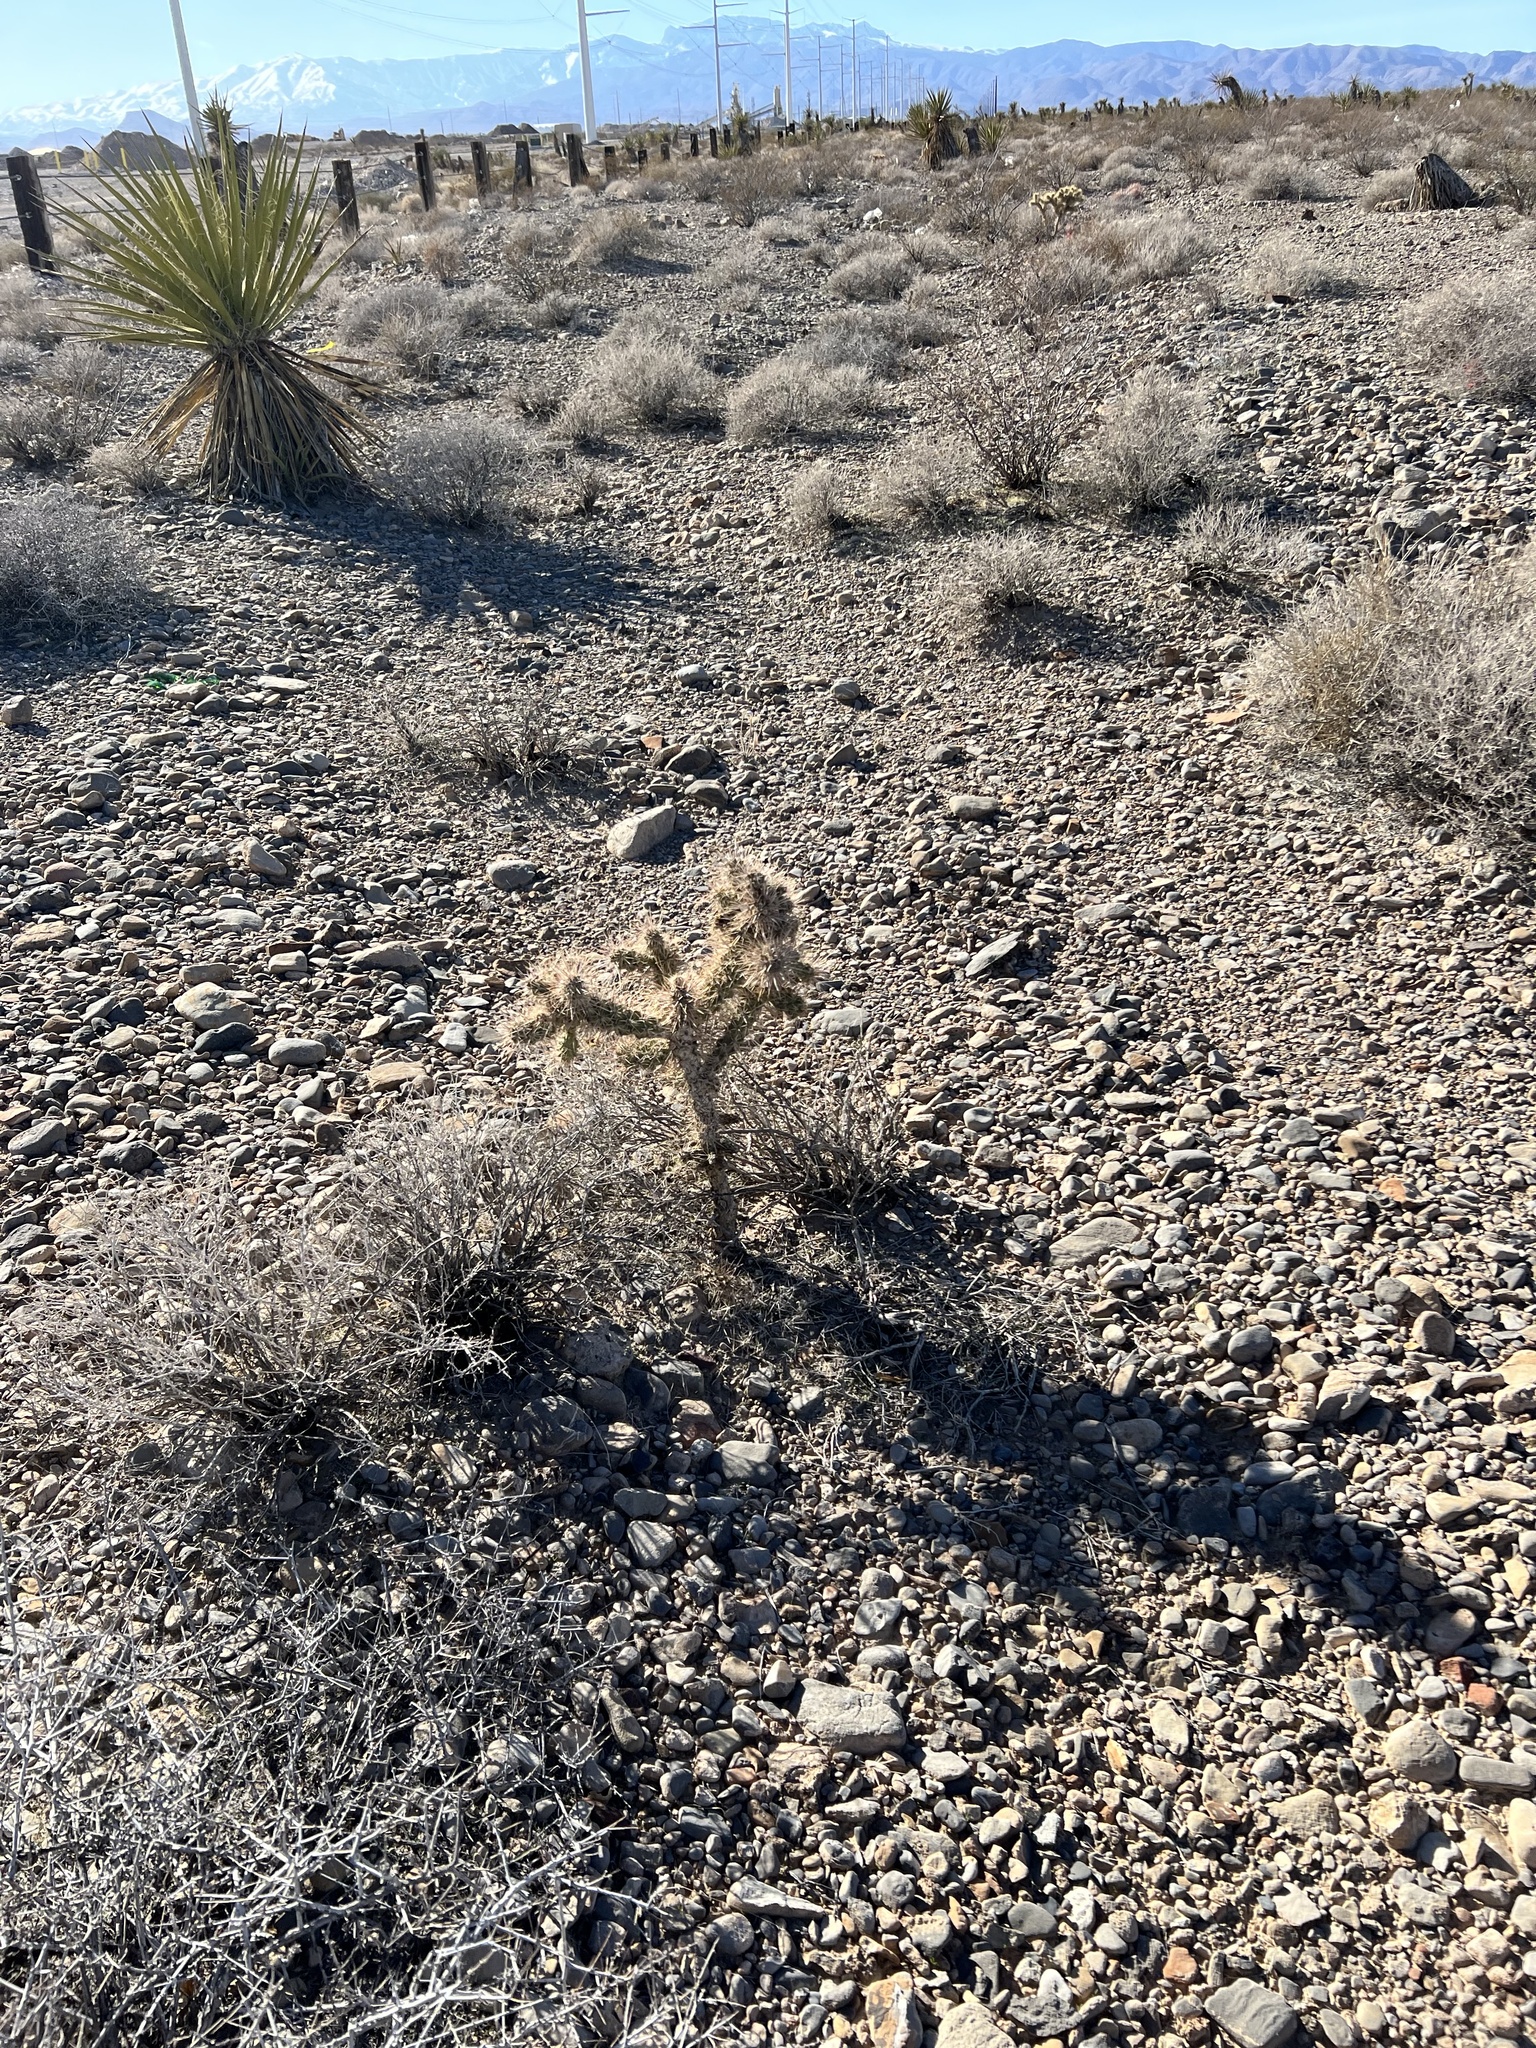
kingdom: Plantae
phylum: Tracheophyta
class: Magnoliopsida
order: Caryophyllales
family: Cactaceae
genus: Cylindropuntia
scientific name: Cylindropuntia echinocarpa
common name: Ground cholla
